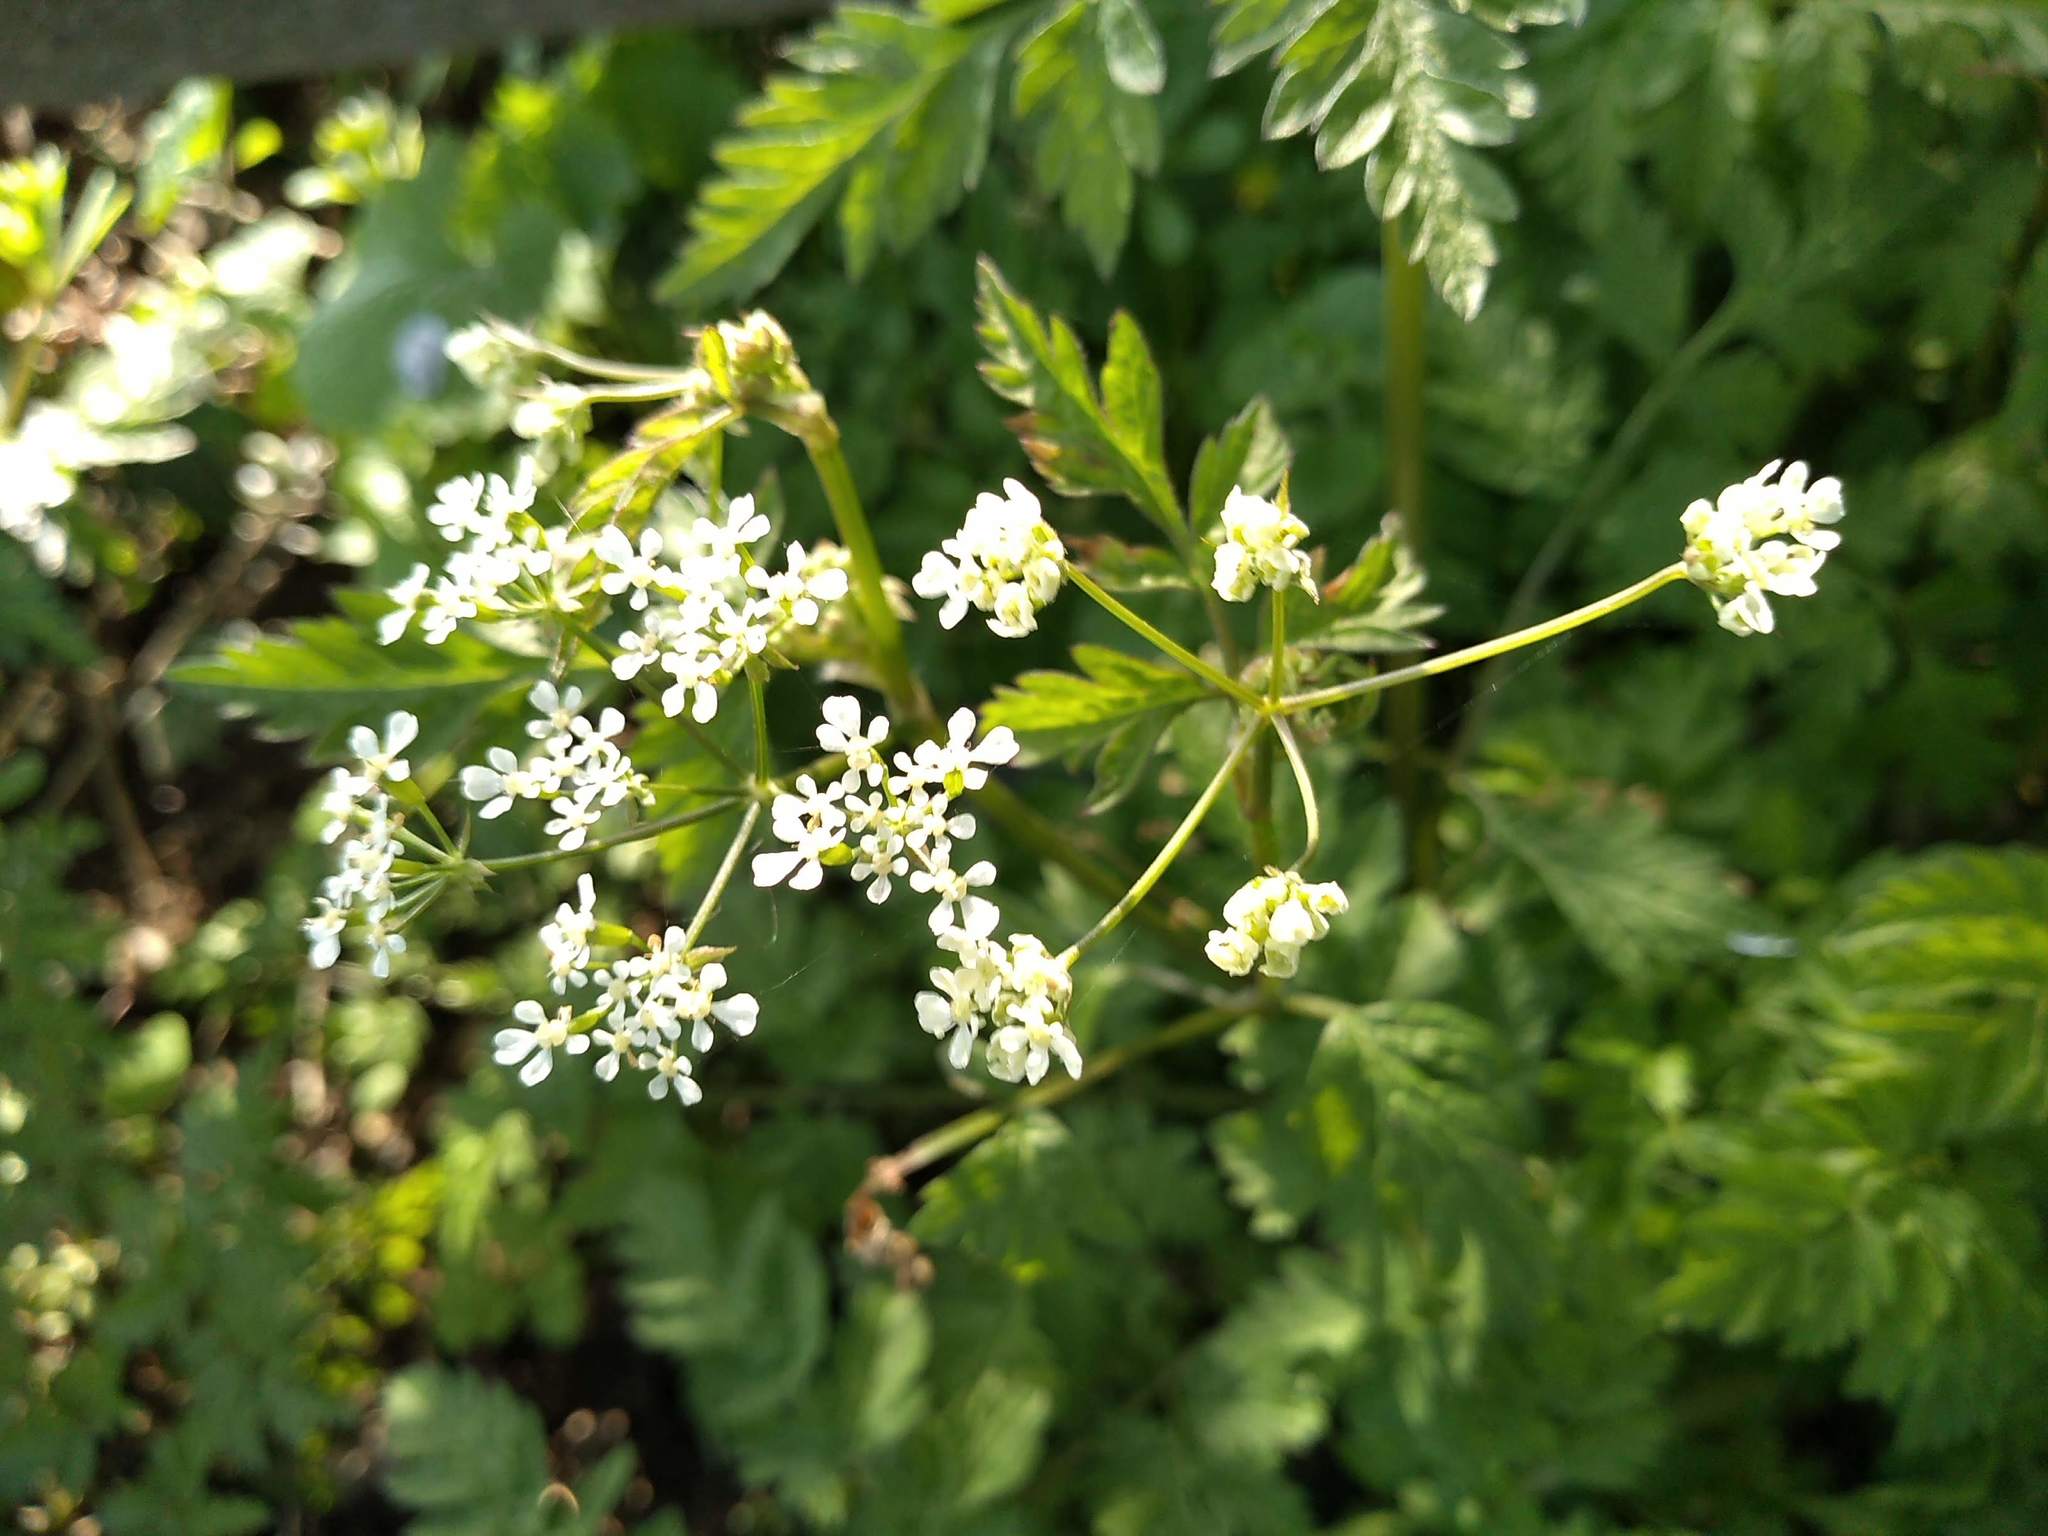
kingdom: Plantae
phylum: Tracheophyta
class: Magnoliopsida
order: Apiales
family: Apiaceae
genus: Anthriscus
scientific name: Anthriscus sylvestris
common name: Cow parsley
